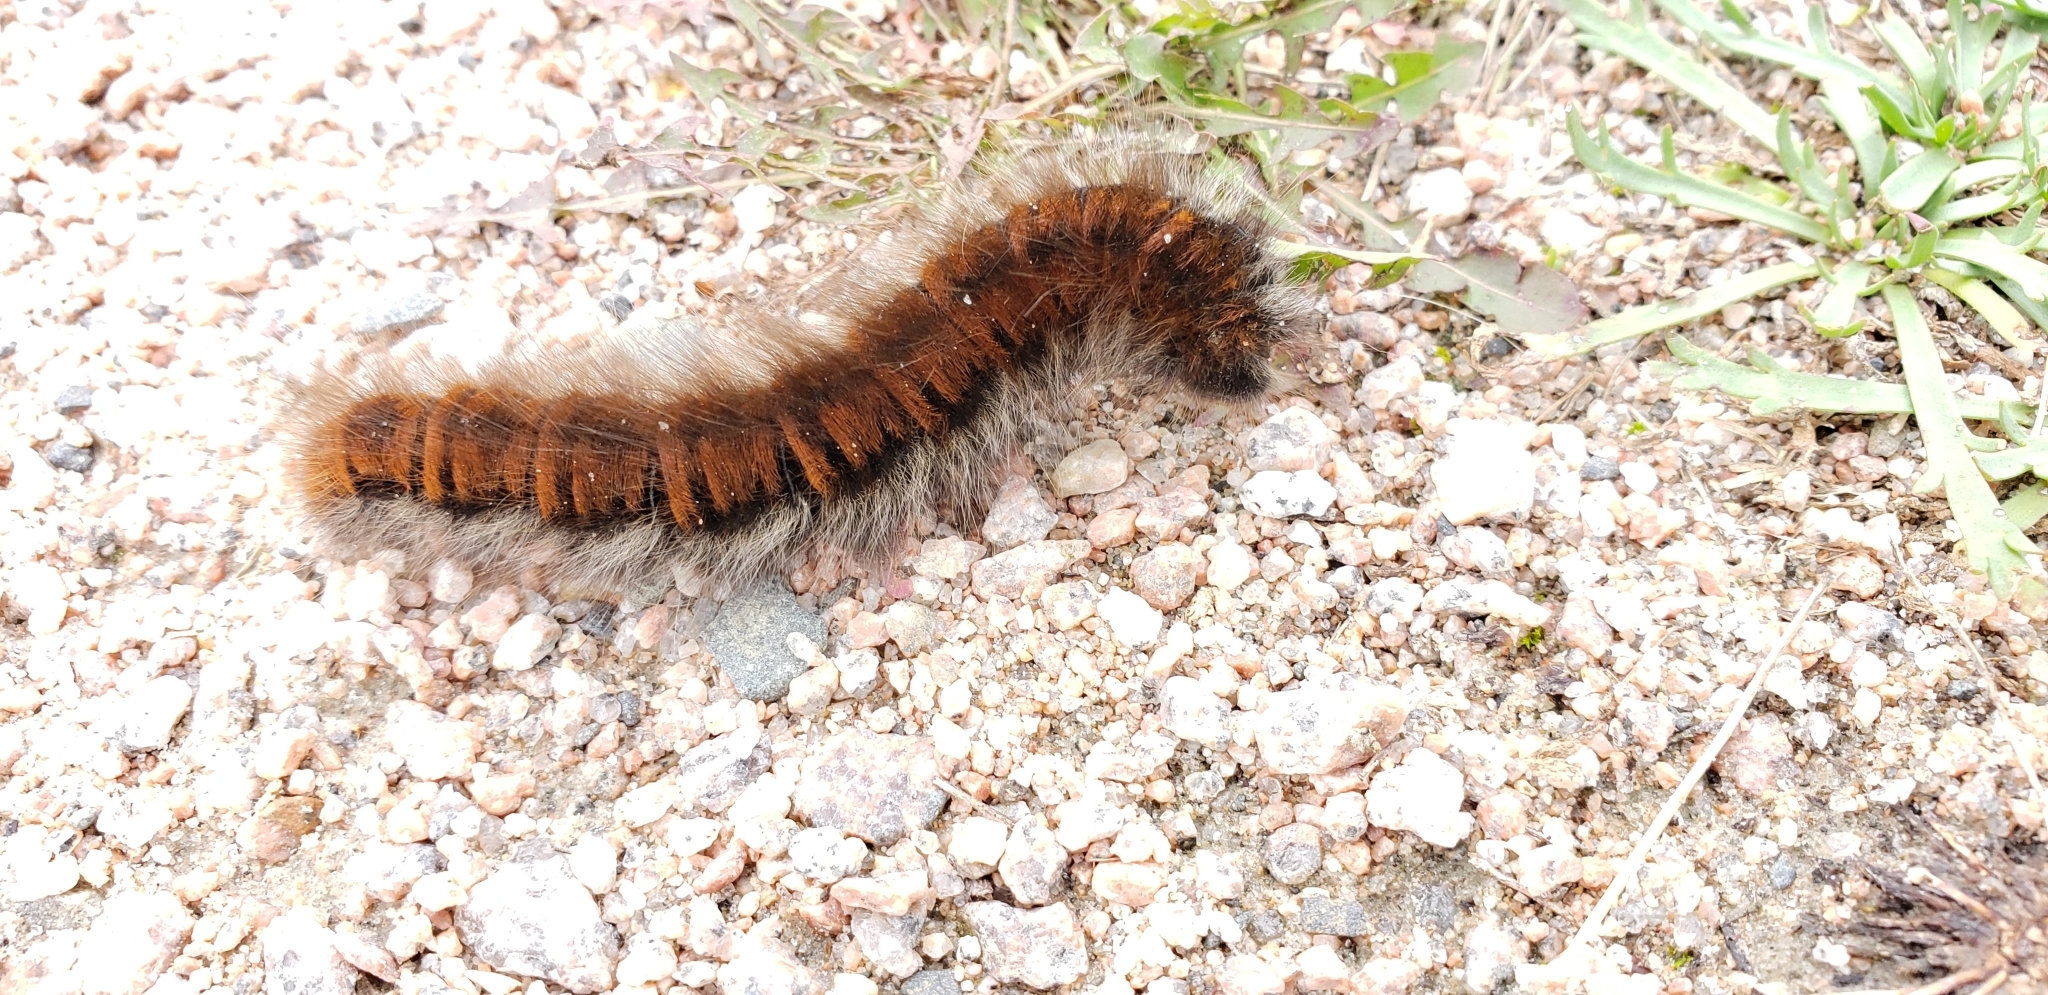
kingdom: Animalia
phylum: Arthropoda
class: Insecta
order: Lepidoptera
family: Lasiocampidae
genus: Macrothylacia
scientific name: Macrothylacia rubi
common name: Fox moth
